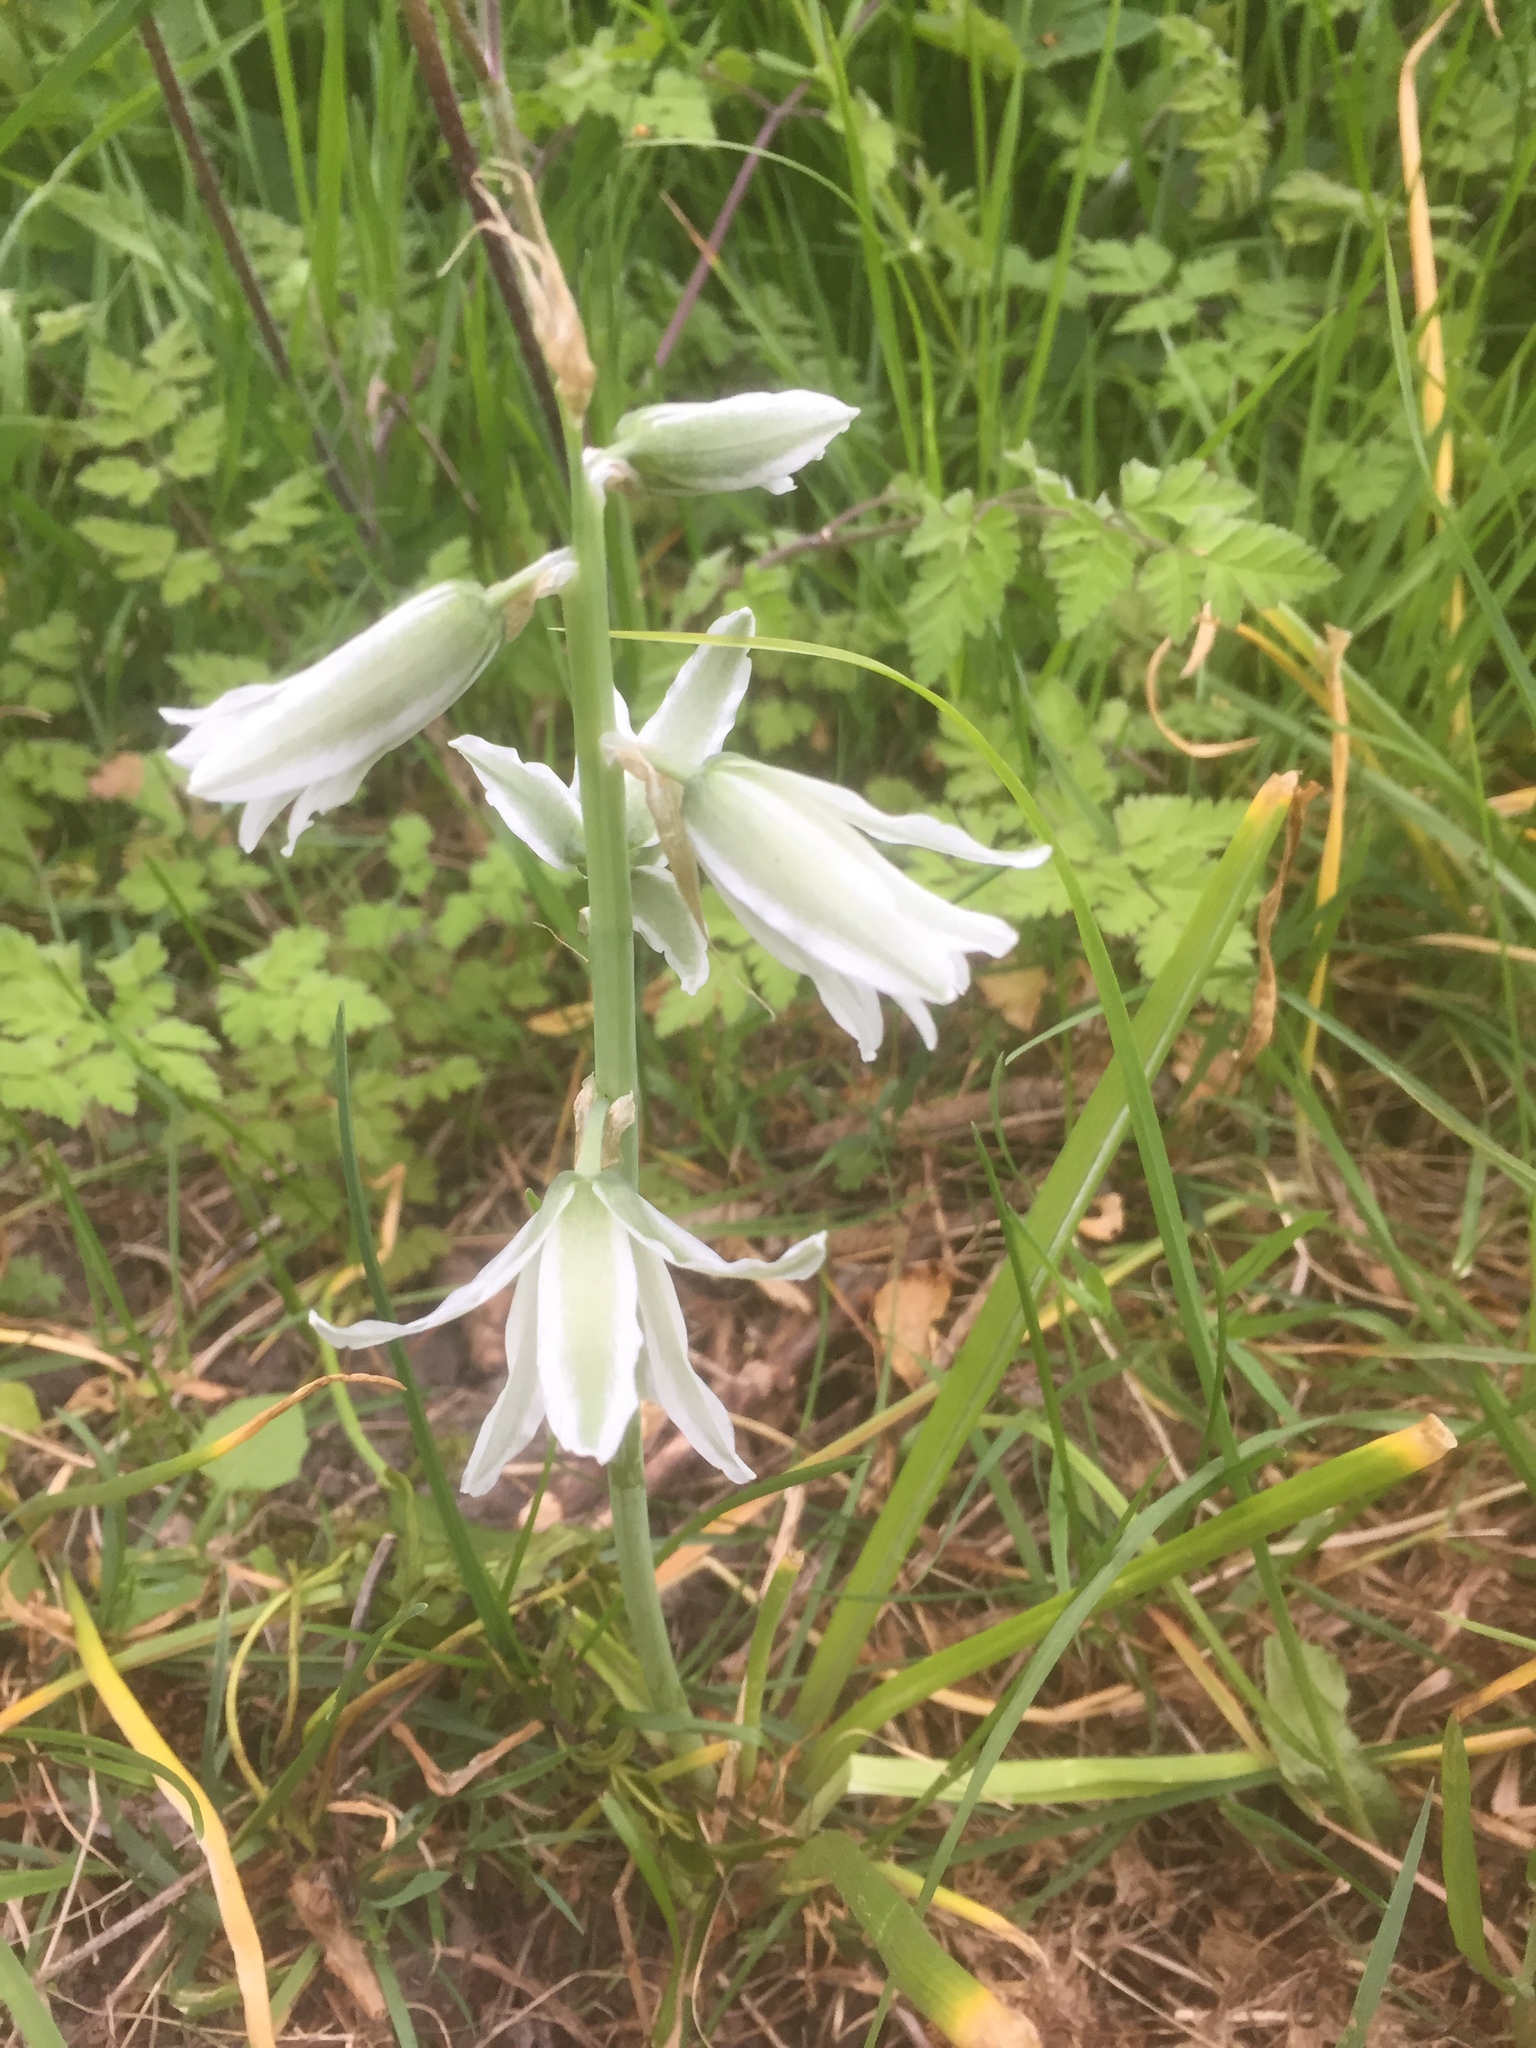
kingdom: Plantae
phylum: Tracheophyta
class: Liliopsida
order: Asparagales
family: Asparagaceae
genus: Ornithogalum
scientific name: Ornithogalum nutans
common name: Drooping star-of-bethlehem
